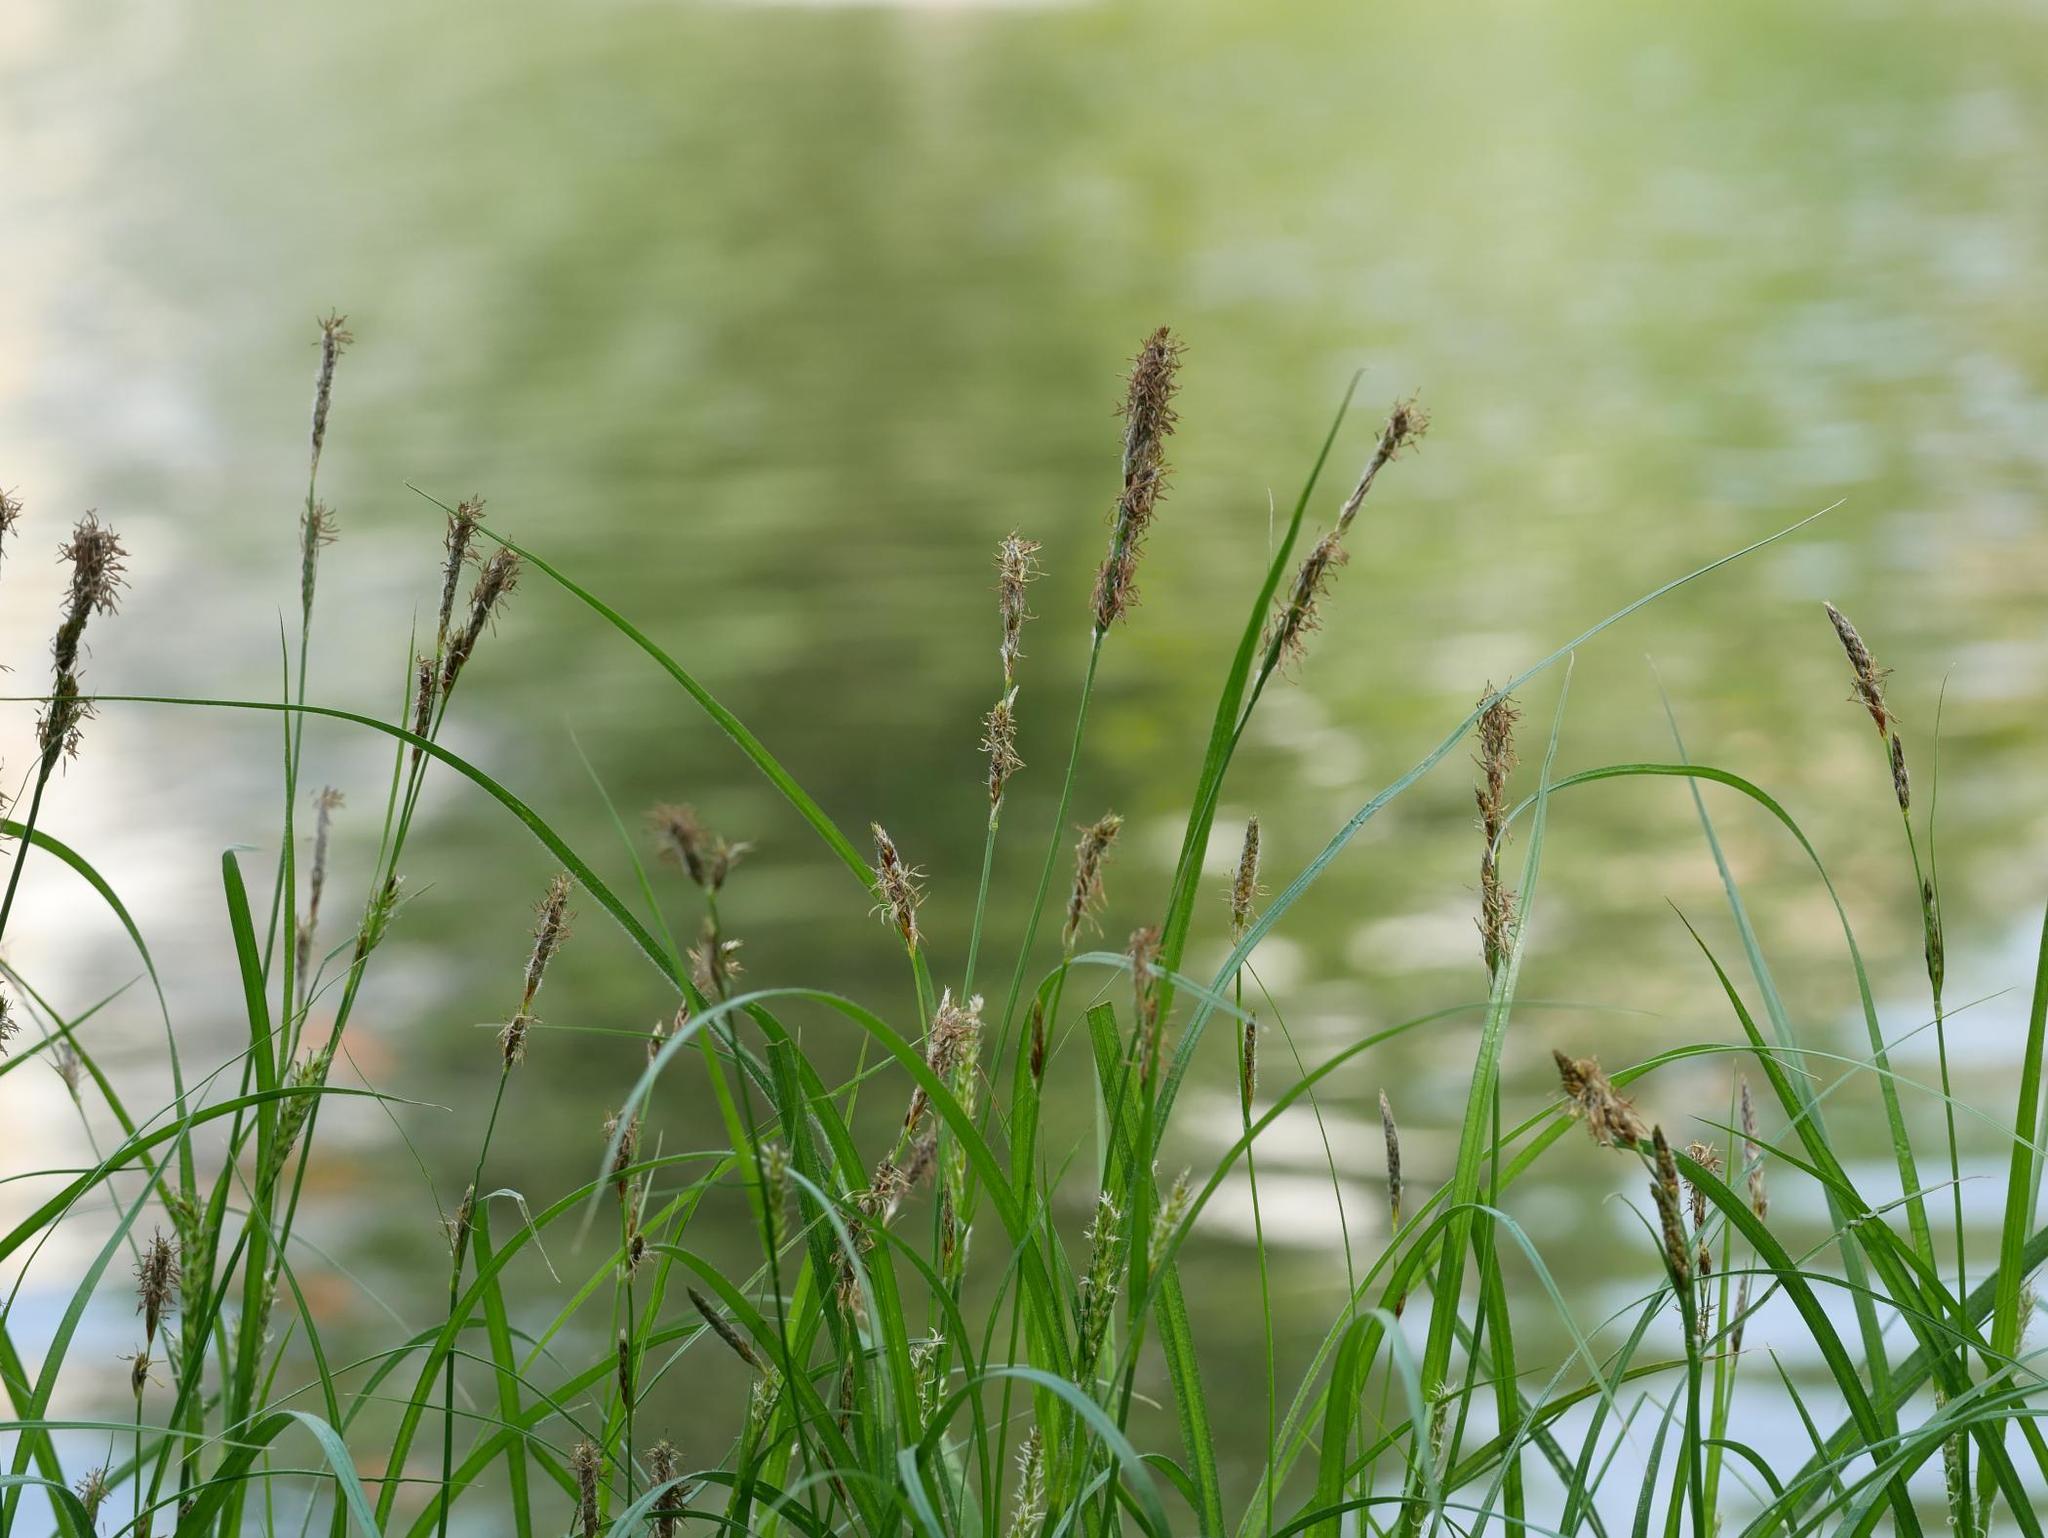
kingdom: Plantae
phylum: Tracheophyta
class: Liliopsida
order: Poales
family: Cyperaceae
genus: Carex
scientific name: Carex hirta
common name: Hairy sedge
